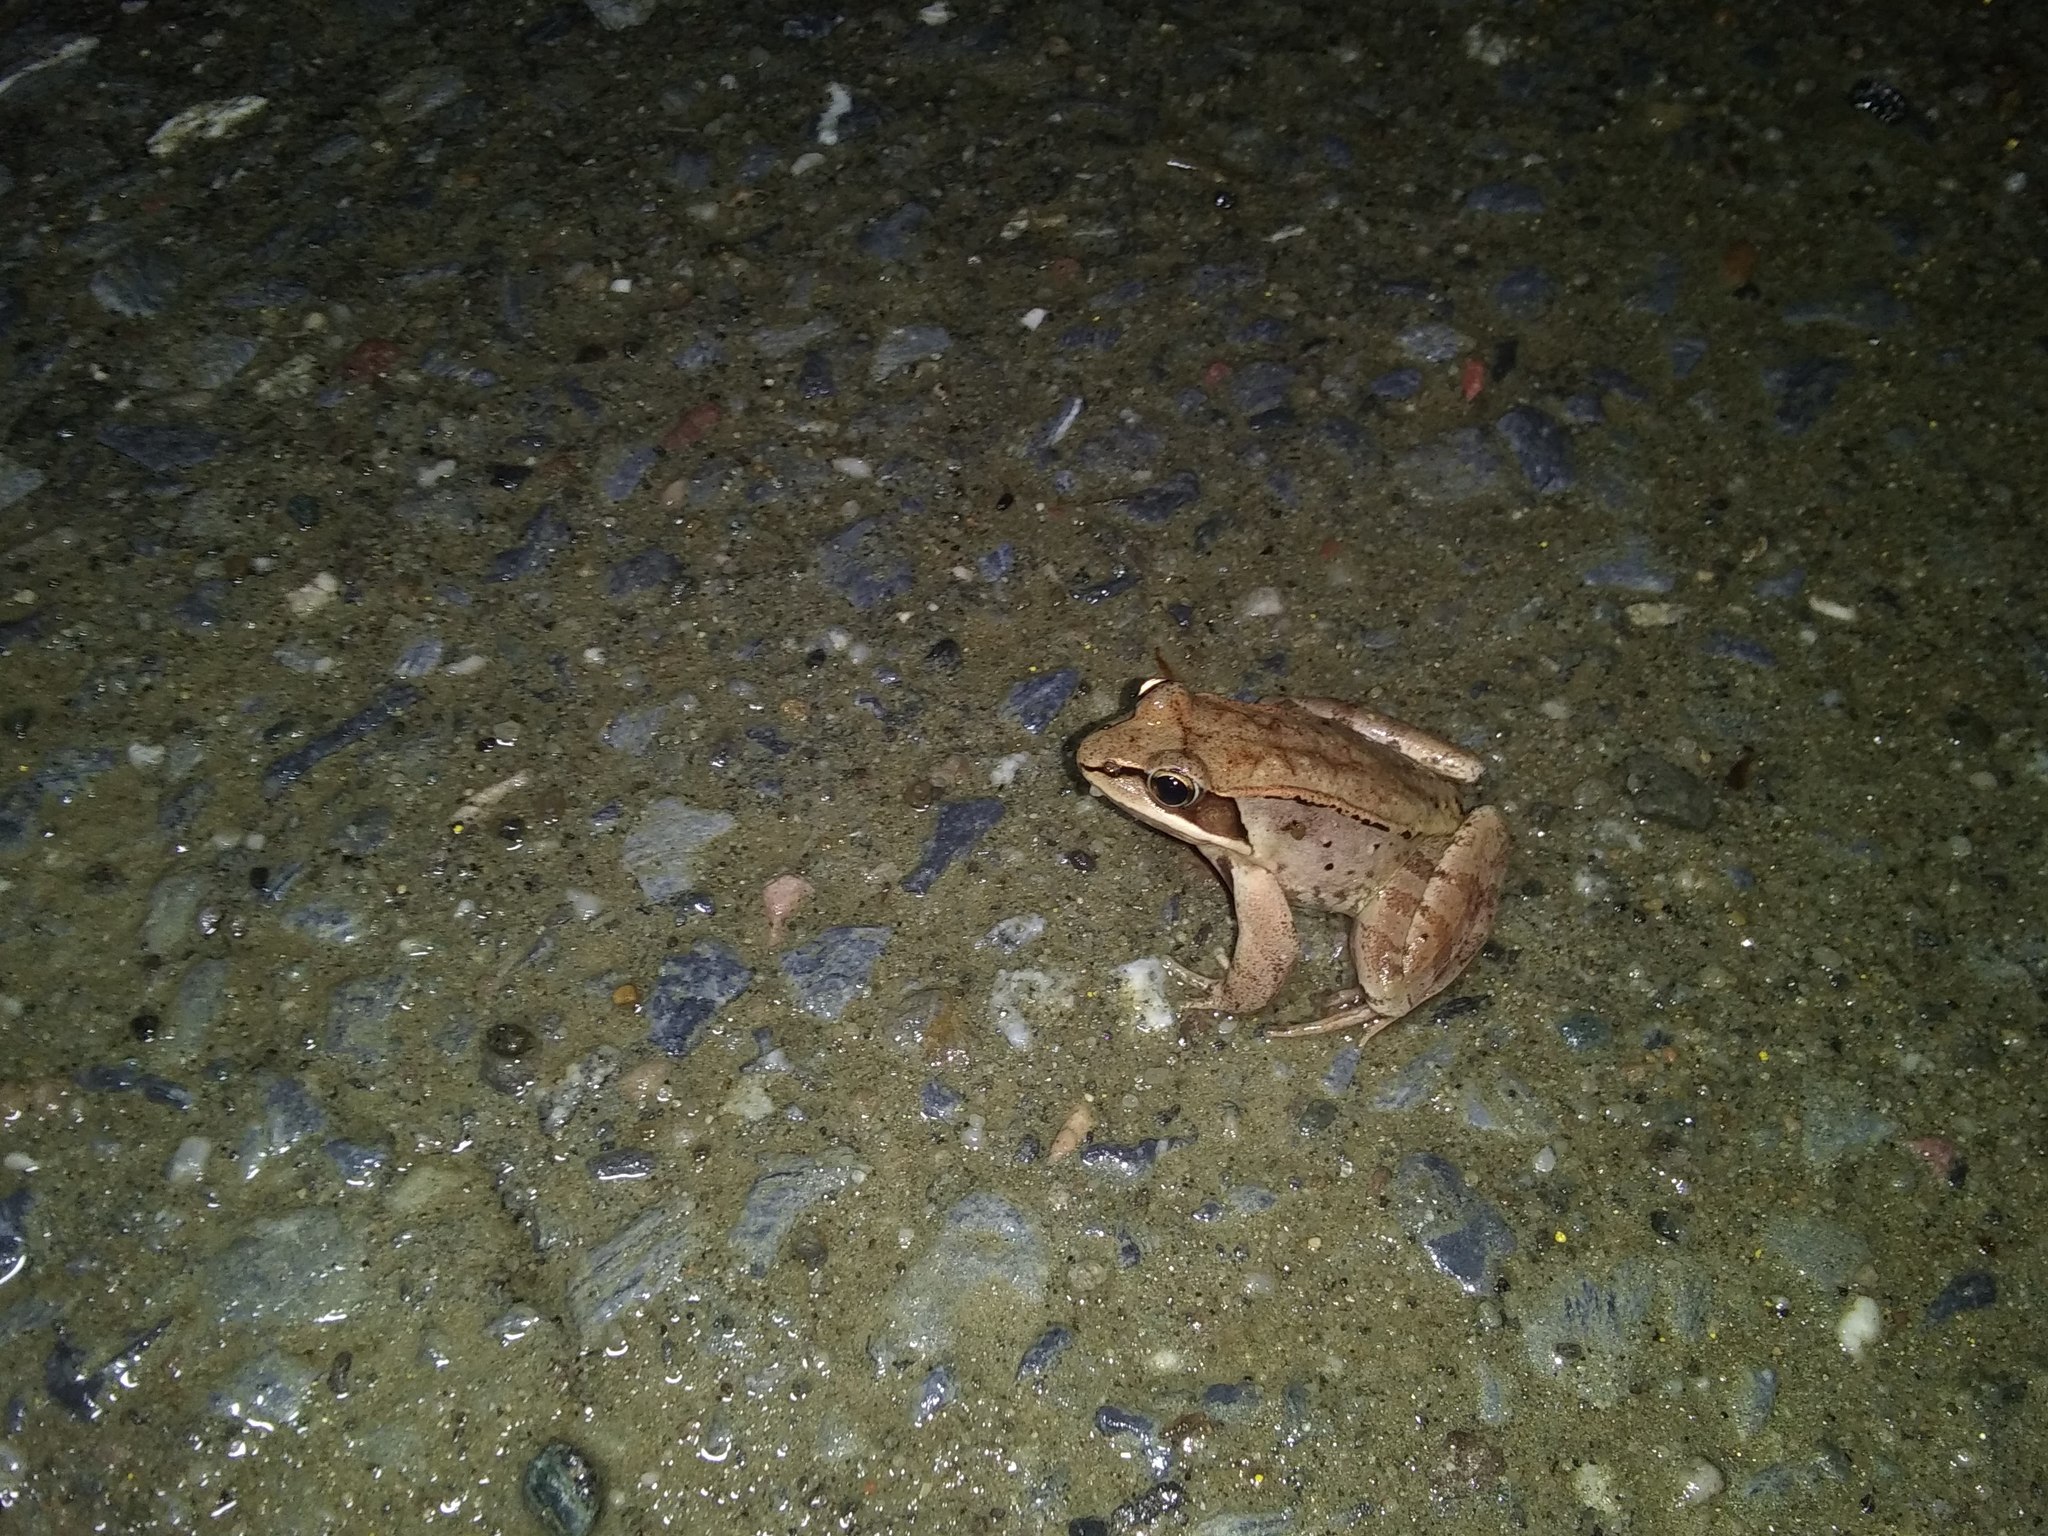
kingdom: Animalia
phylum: Chordata
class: Amphibia
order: Anura
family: Ranidae
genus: Lithobates
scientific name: Lithobates sylvaticus
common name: Wood frog
